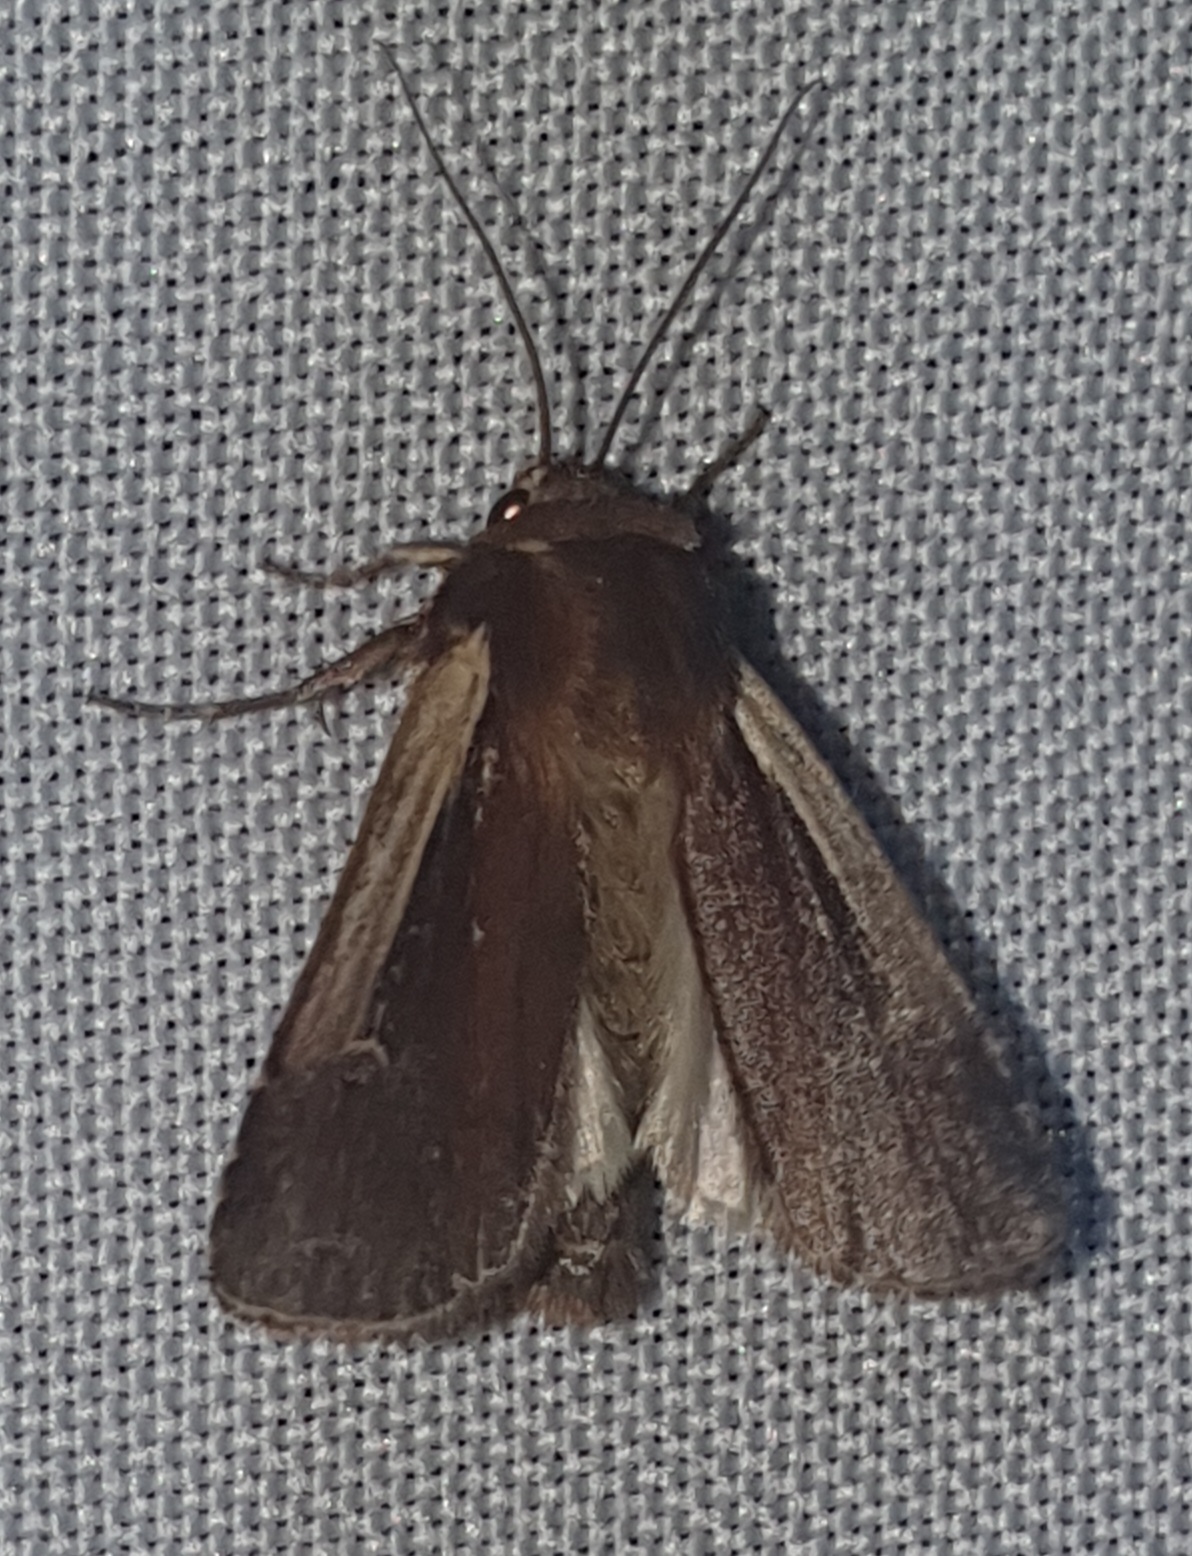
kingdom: Animalia
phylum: Arthropoda
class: Insecta
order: Lepidoptera
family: Noctuidae
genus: Ochropleura
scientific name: Ochropleura plecta
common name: Flame shoulder
